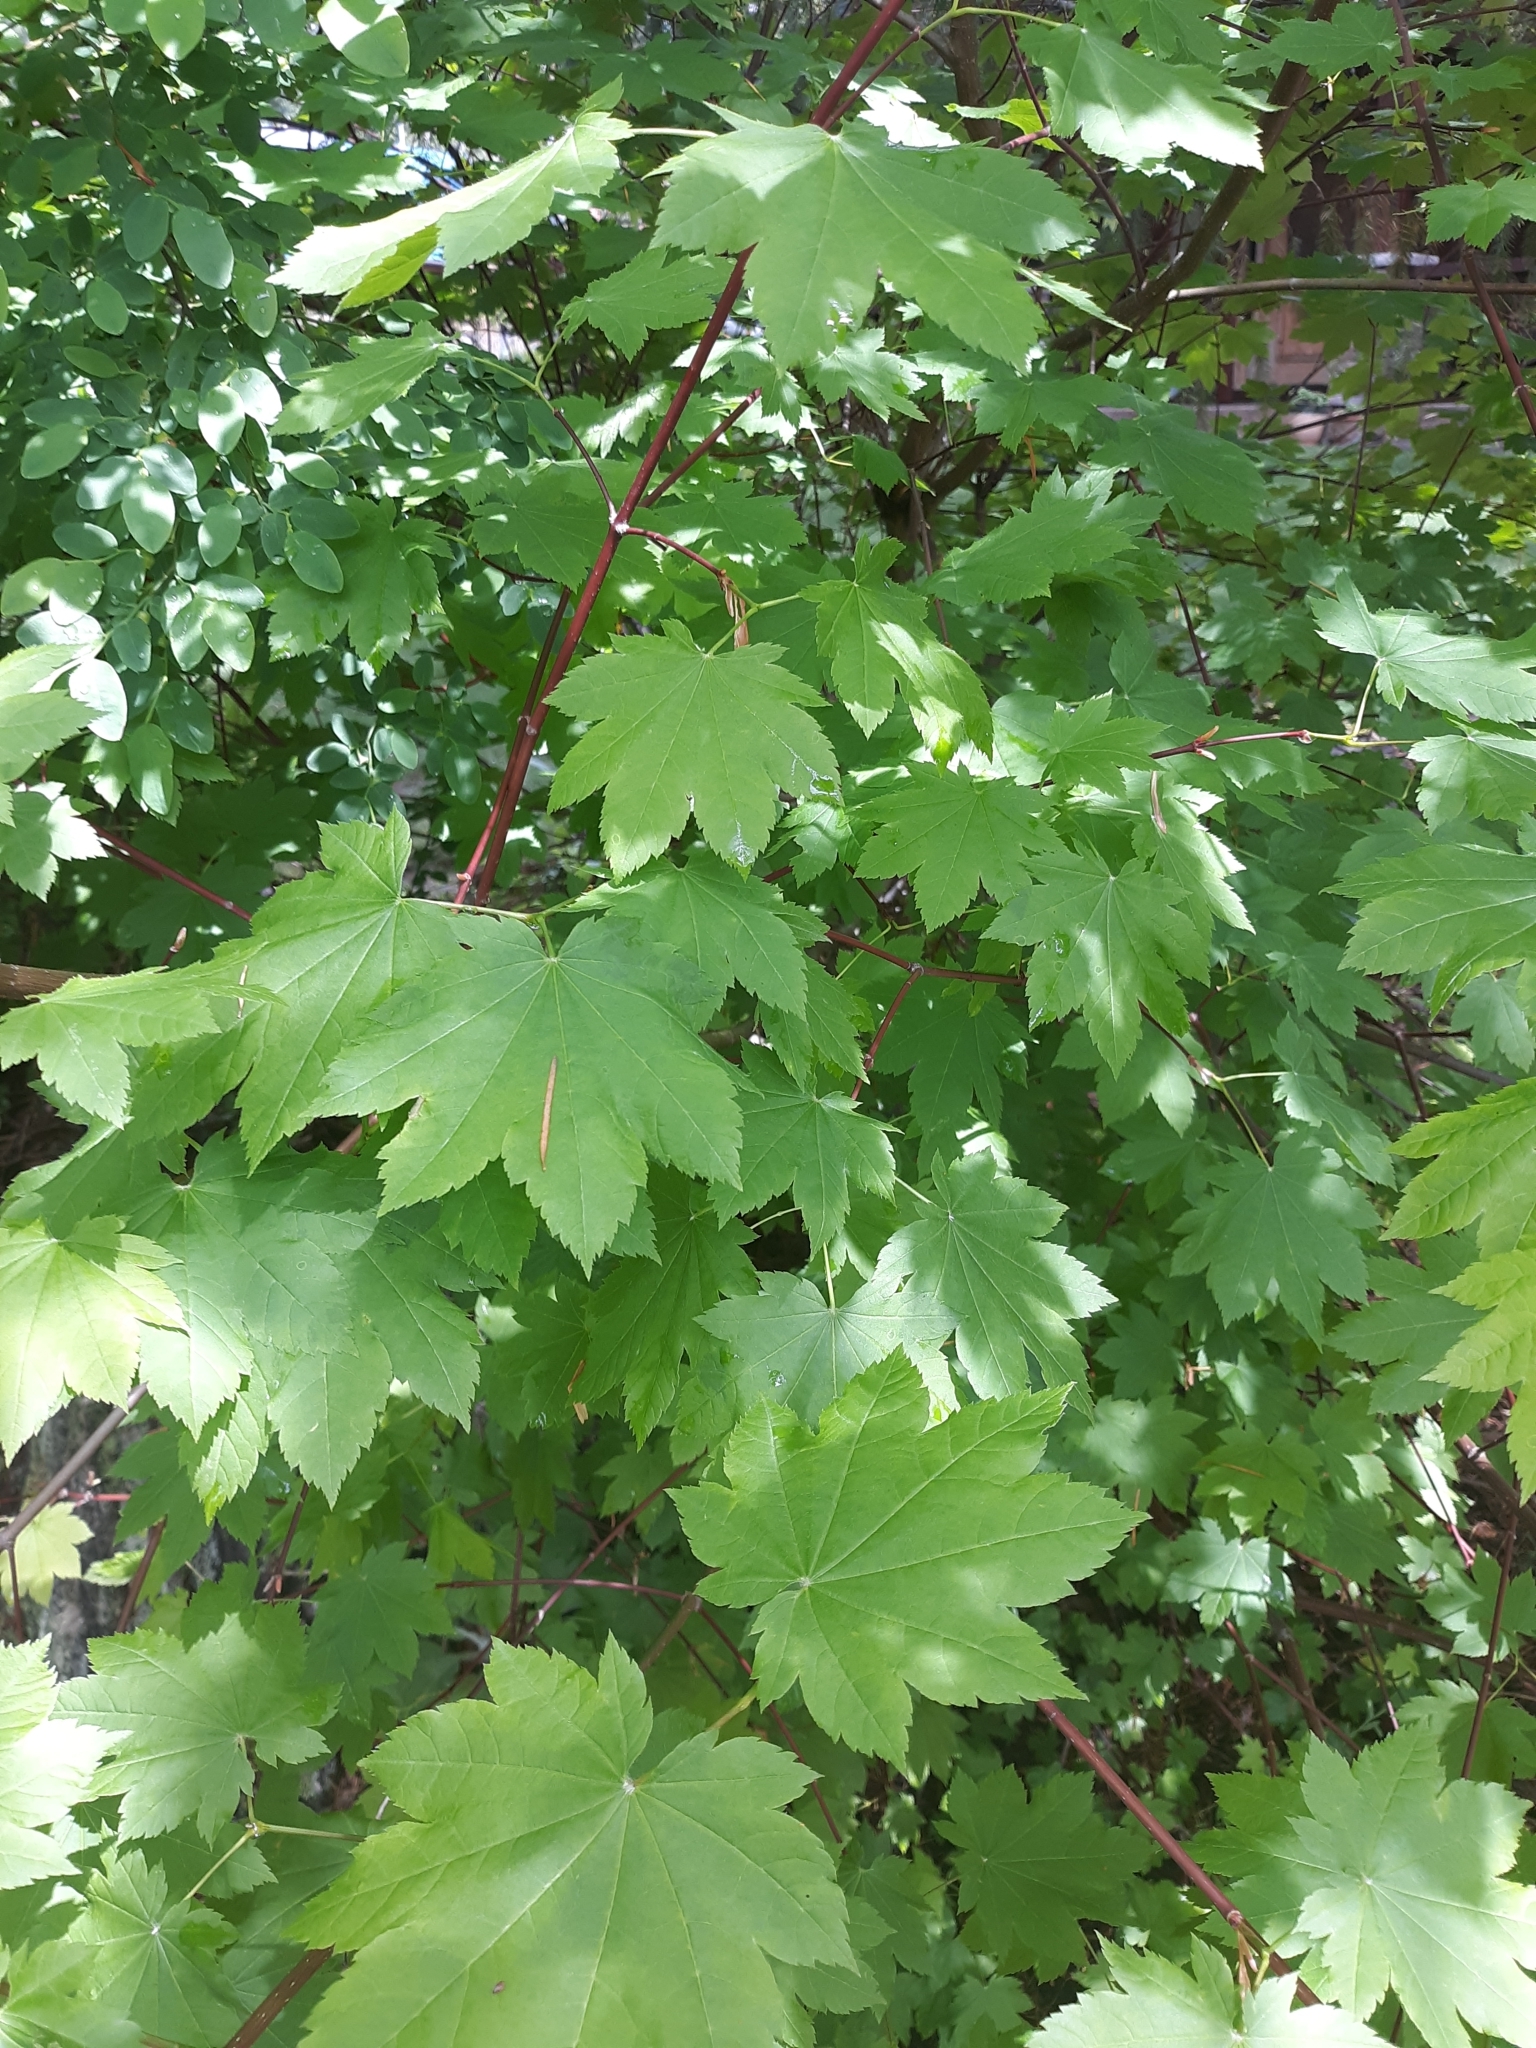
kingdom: Plantae
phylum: Tracheophyta
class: Magnoliopsida
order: Sapindales
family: Sapindaceae
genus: Acer
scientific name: Acer circinatum
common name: Vine maple
